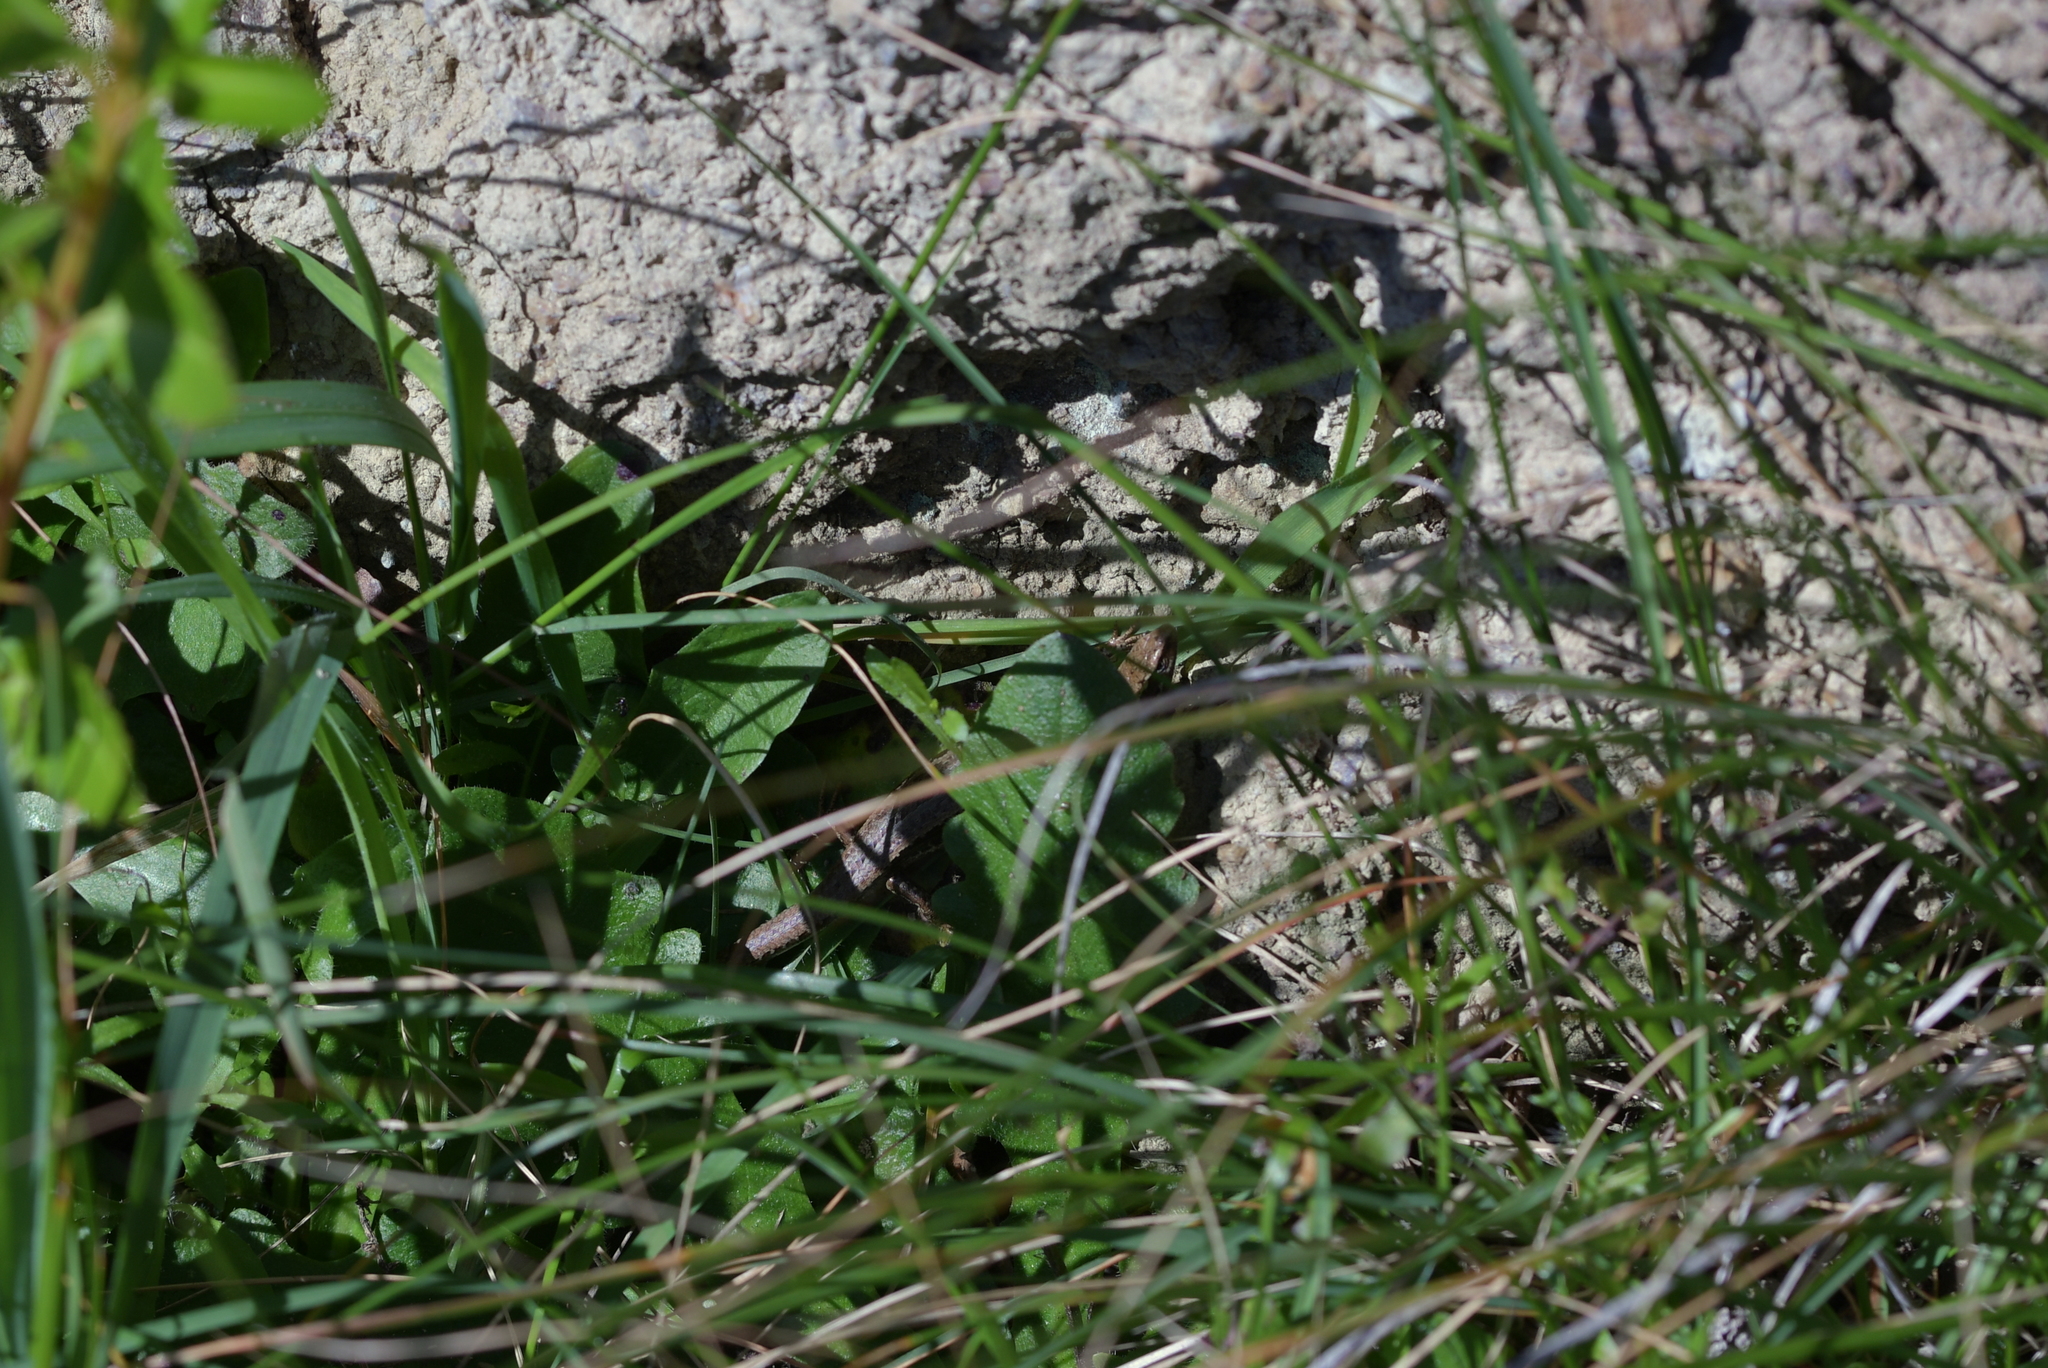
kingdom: Animalia
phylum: Chordata
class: Squamata
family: Scincidae
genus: Oligosoma
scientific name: Oligosoma polychroma
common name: Common new zealand skink
